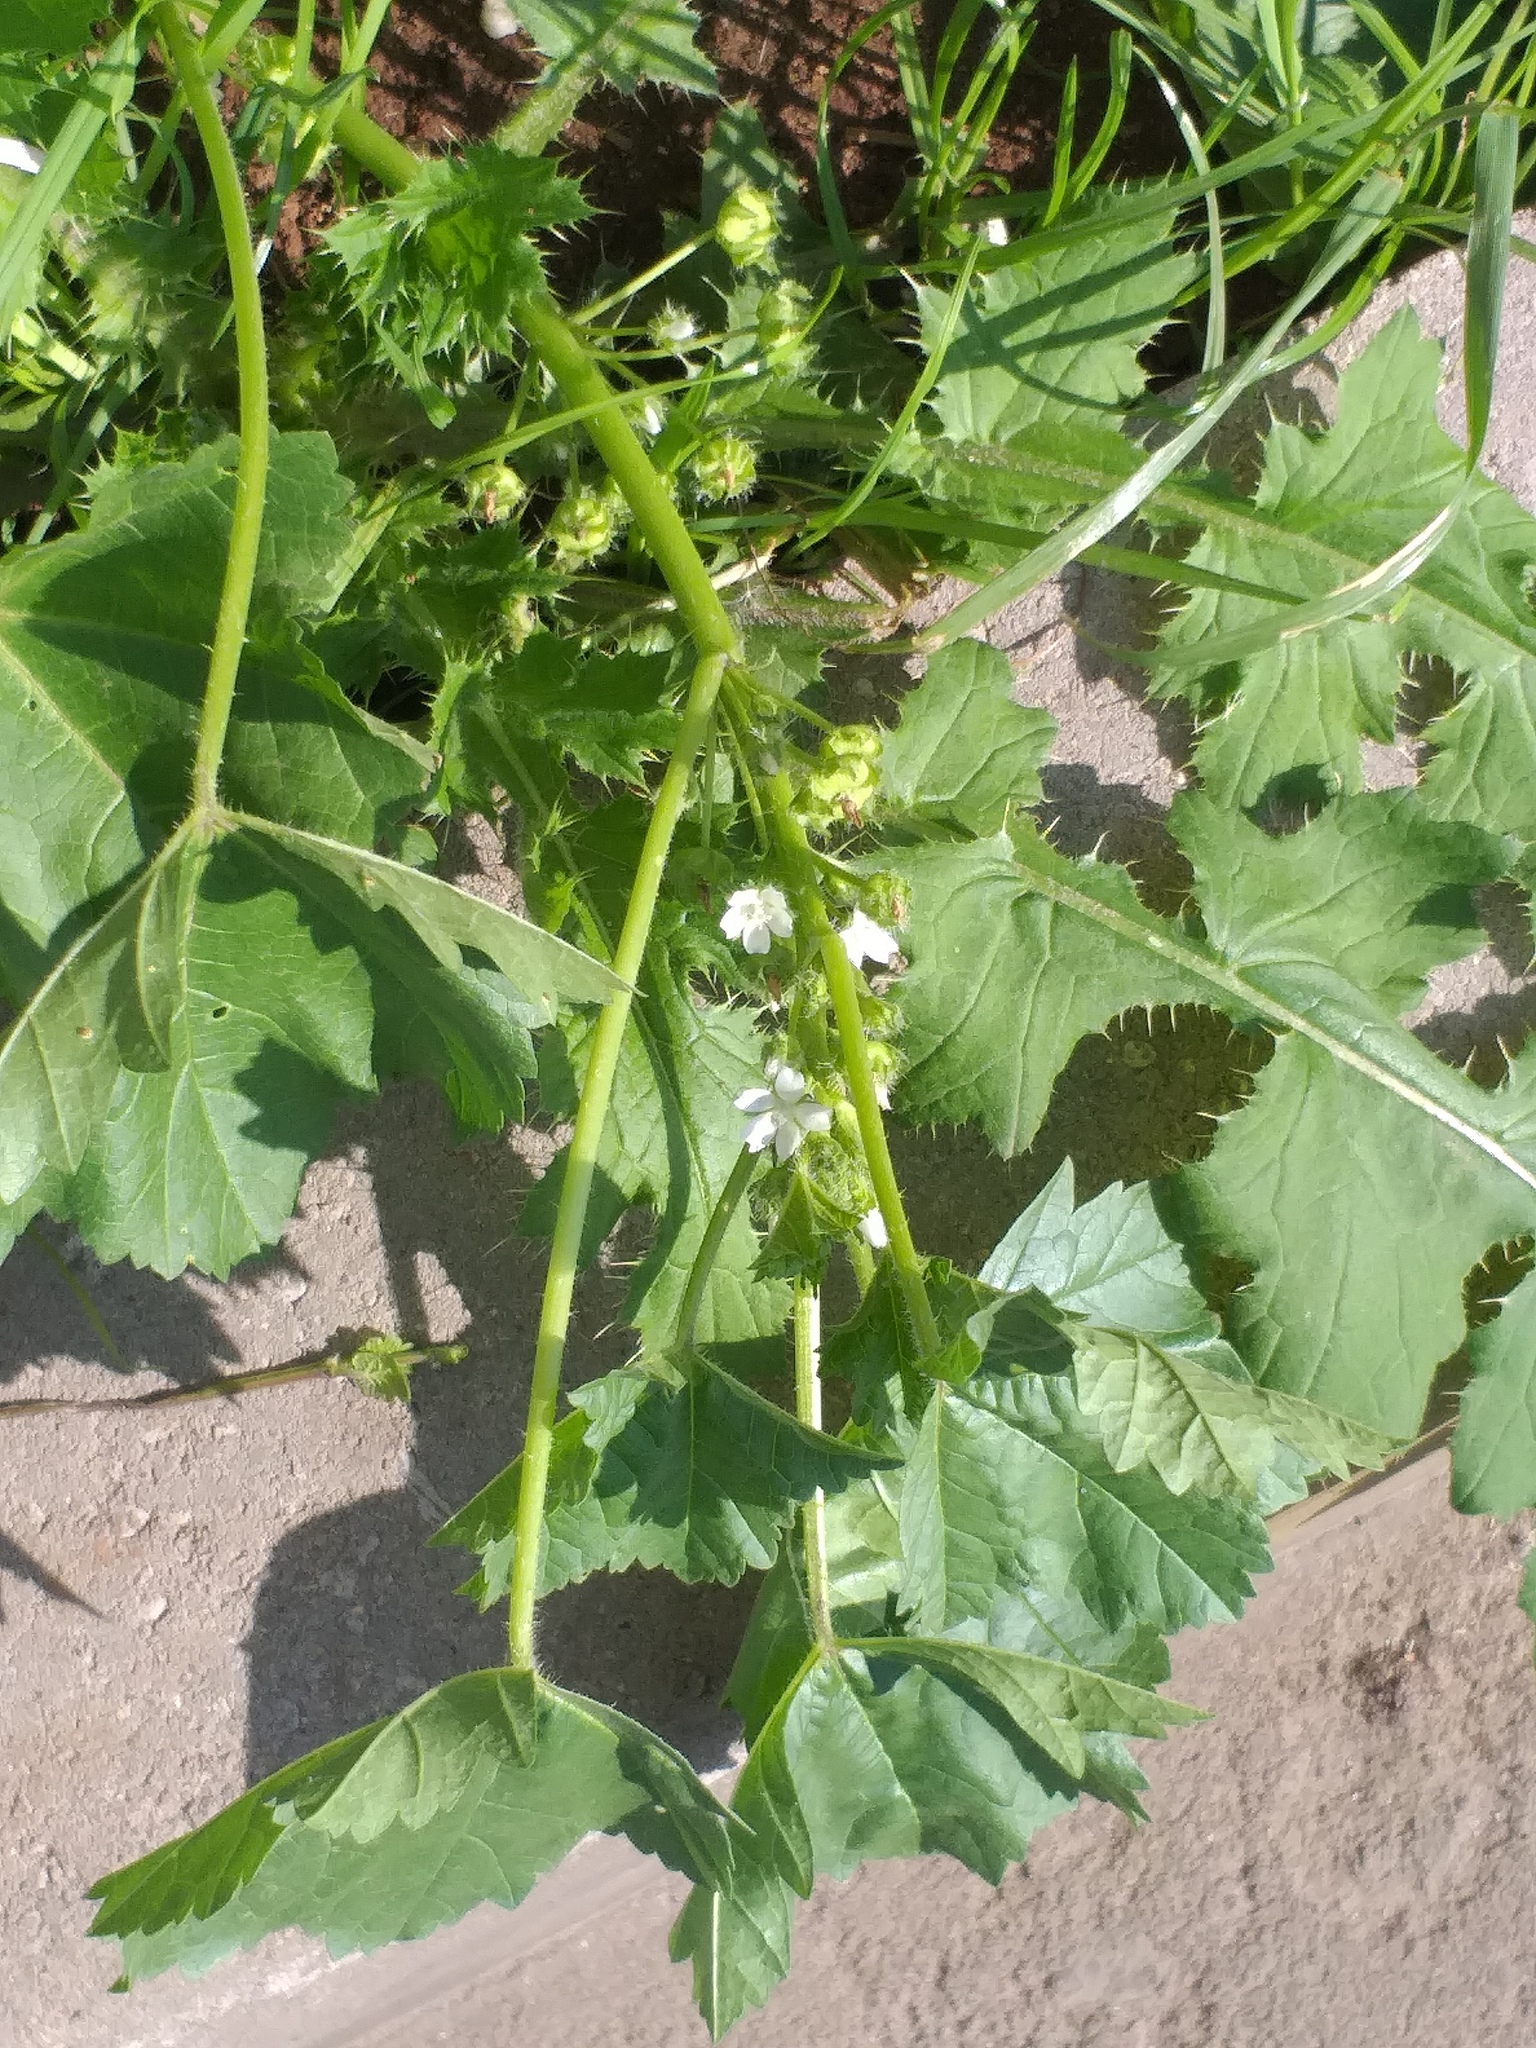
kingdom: Plantae
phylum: Tracheophyta
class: Magnoliopsida
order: Malvales
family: Malvaceae
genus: Malva
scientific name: Malva pusilla
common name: Small mallow
